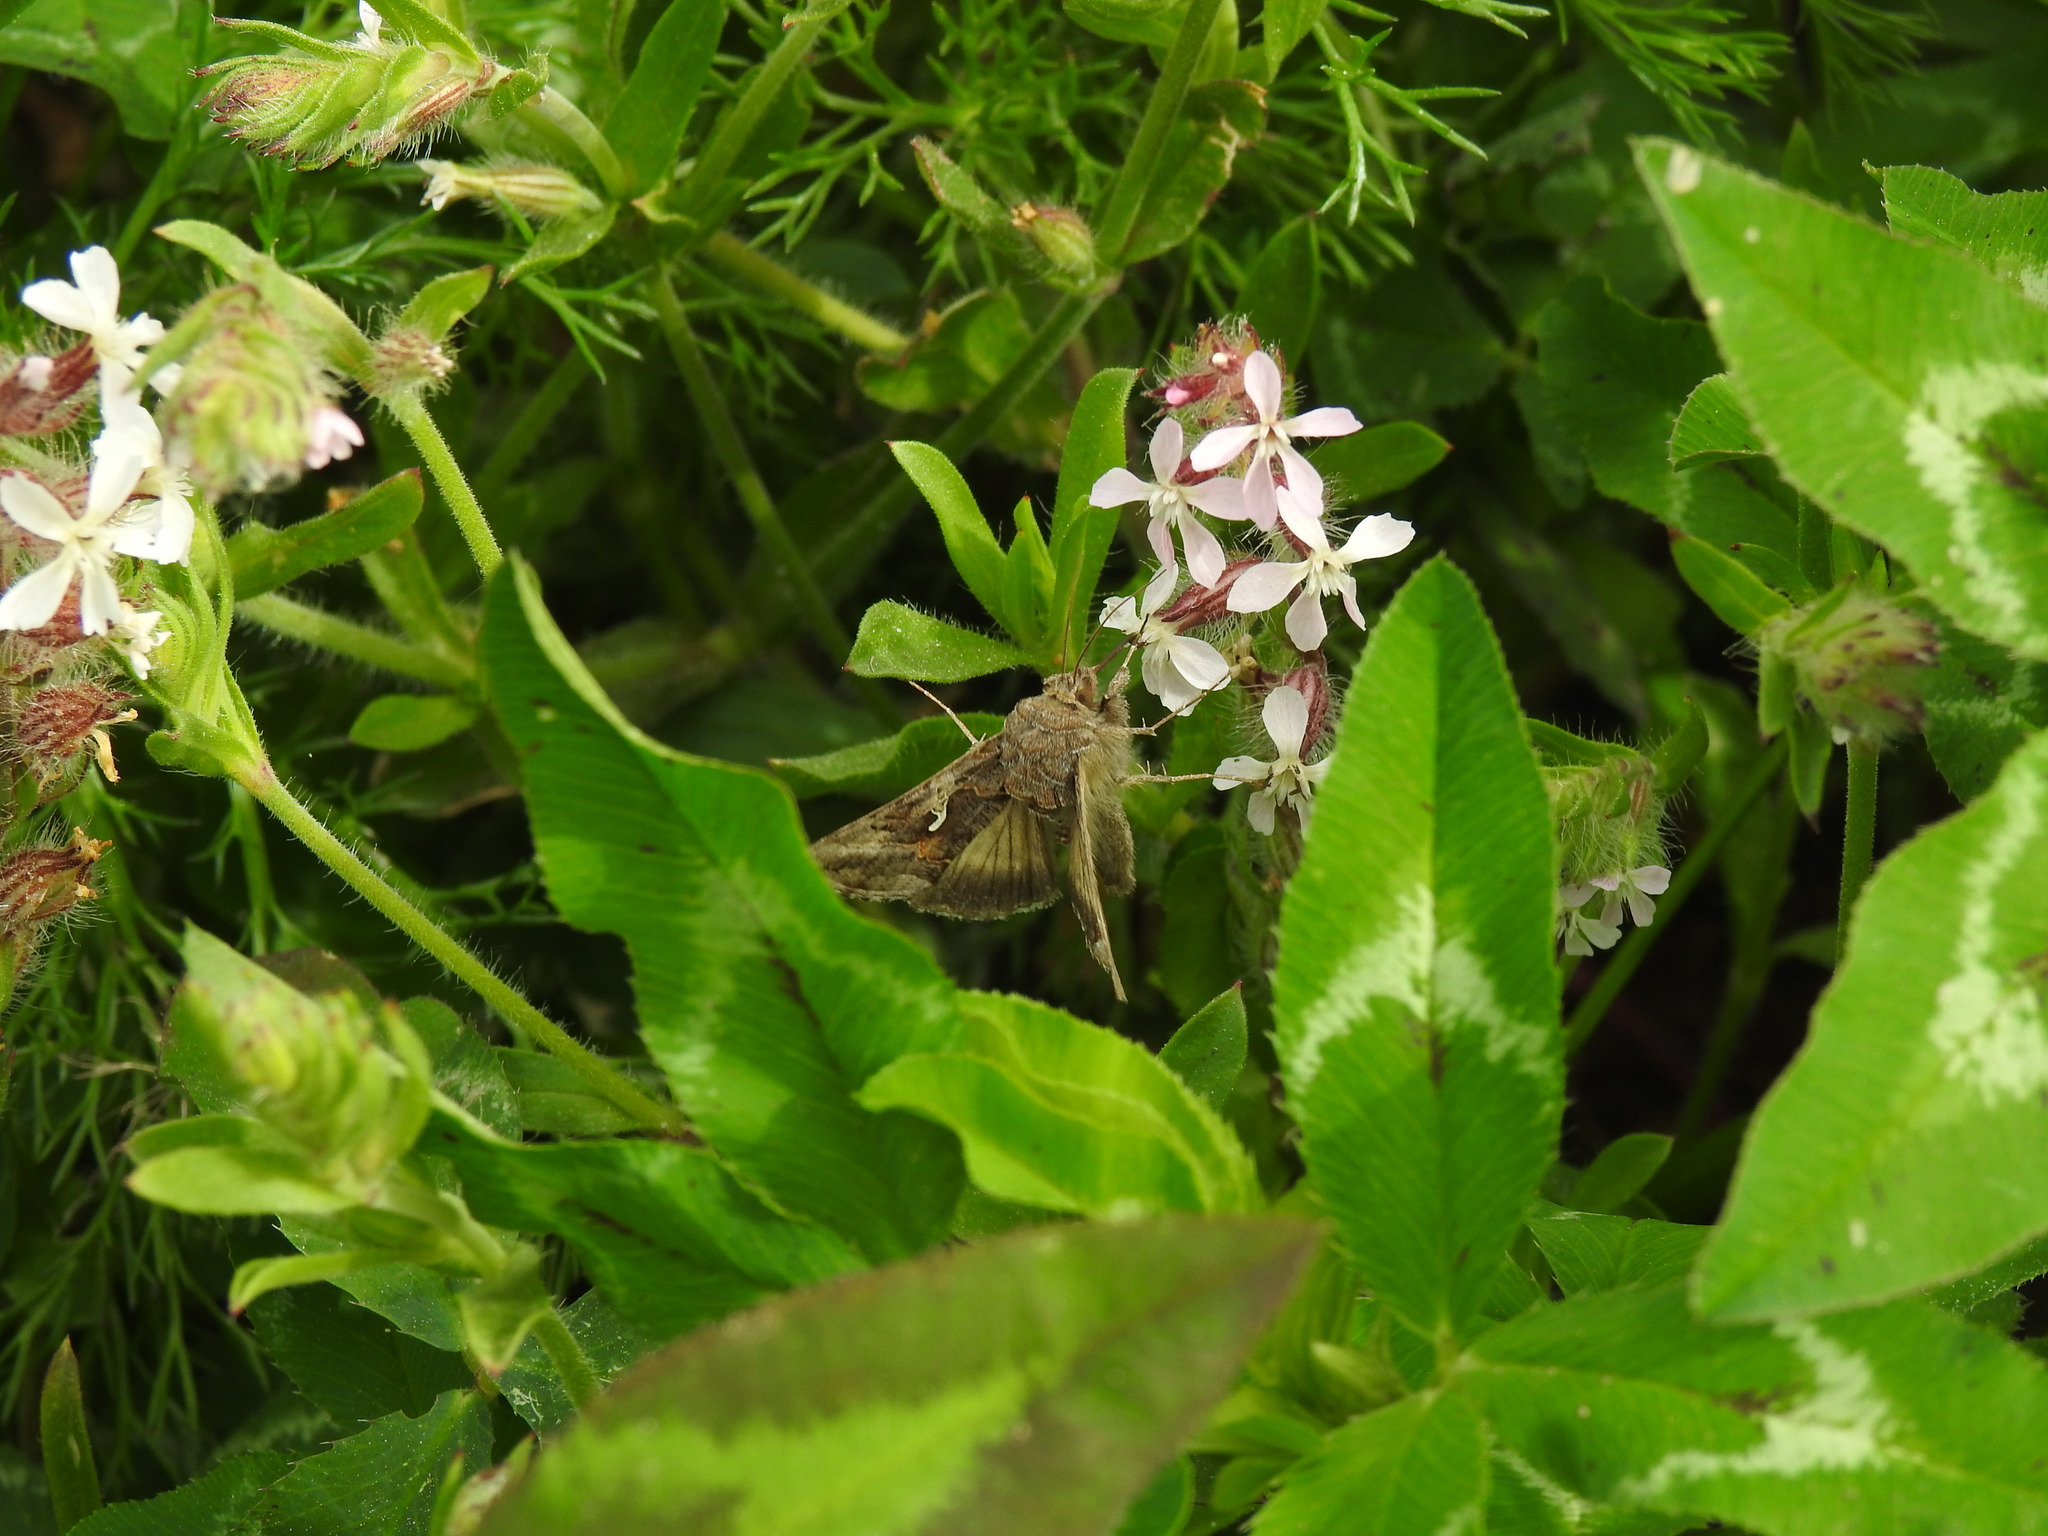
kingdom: Animalia
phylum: Arthropoda
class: Insecta
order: Lepidoptera
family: Noctuidae
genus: Autographa
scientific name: Autographa gamma
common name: Silver y
